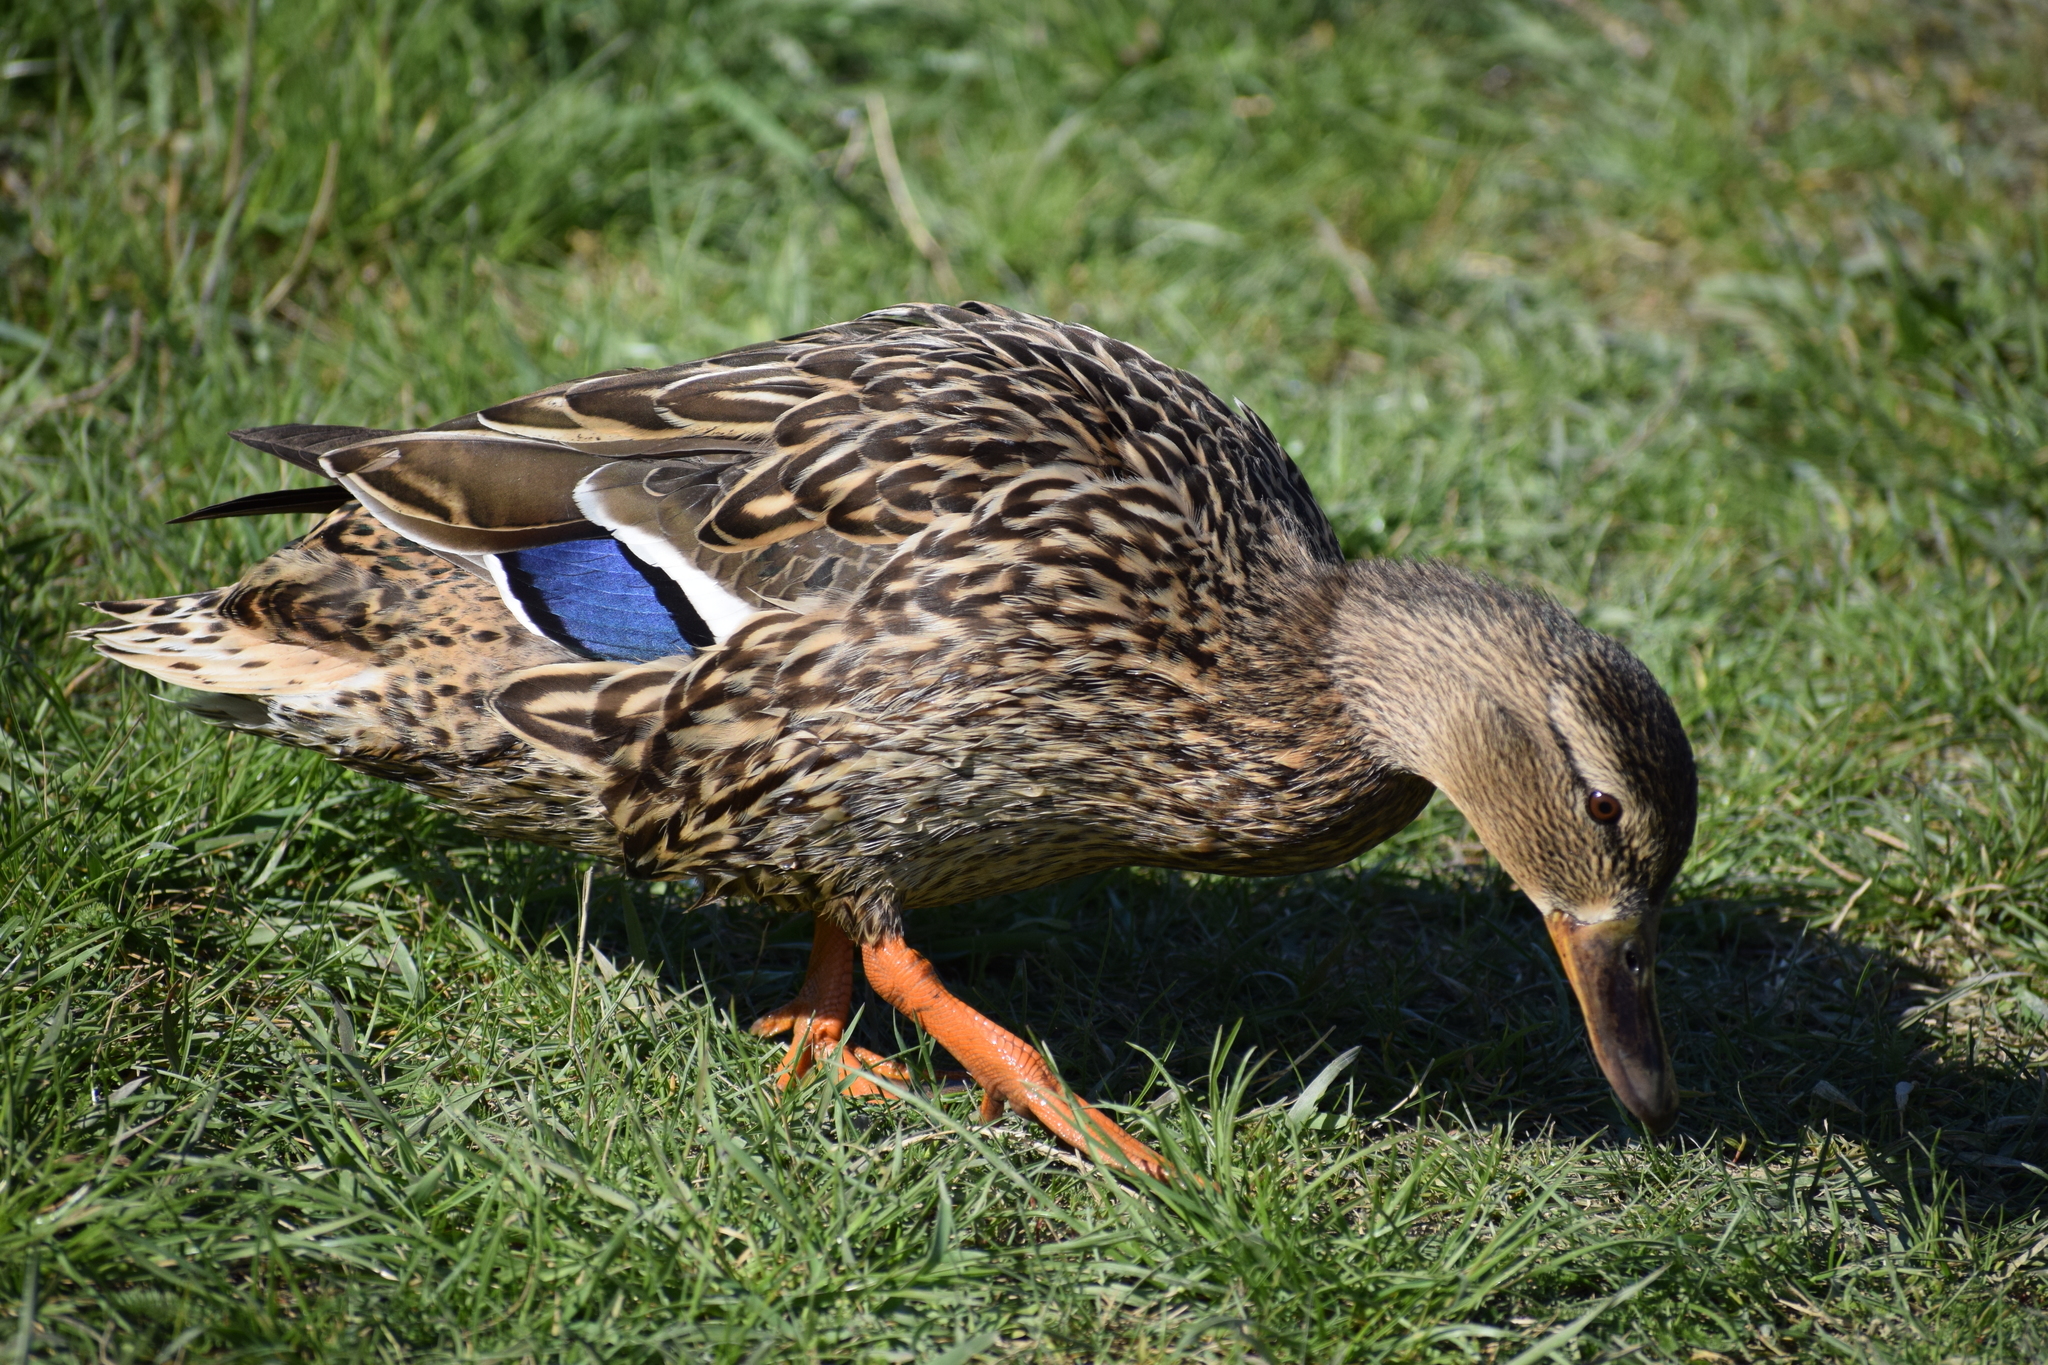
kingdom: Animalia
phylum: Chordata
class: Aves
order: Anseriformes
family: Anatidae
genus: Anas
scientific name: Anas platyrhynchos
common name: Mallard
